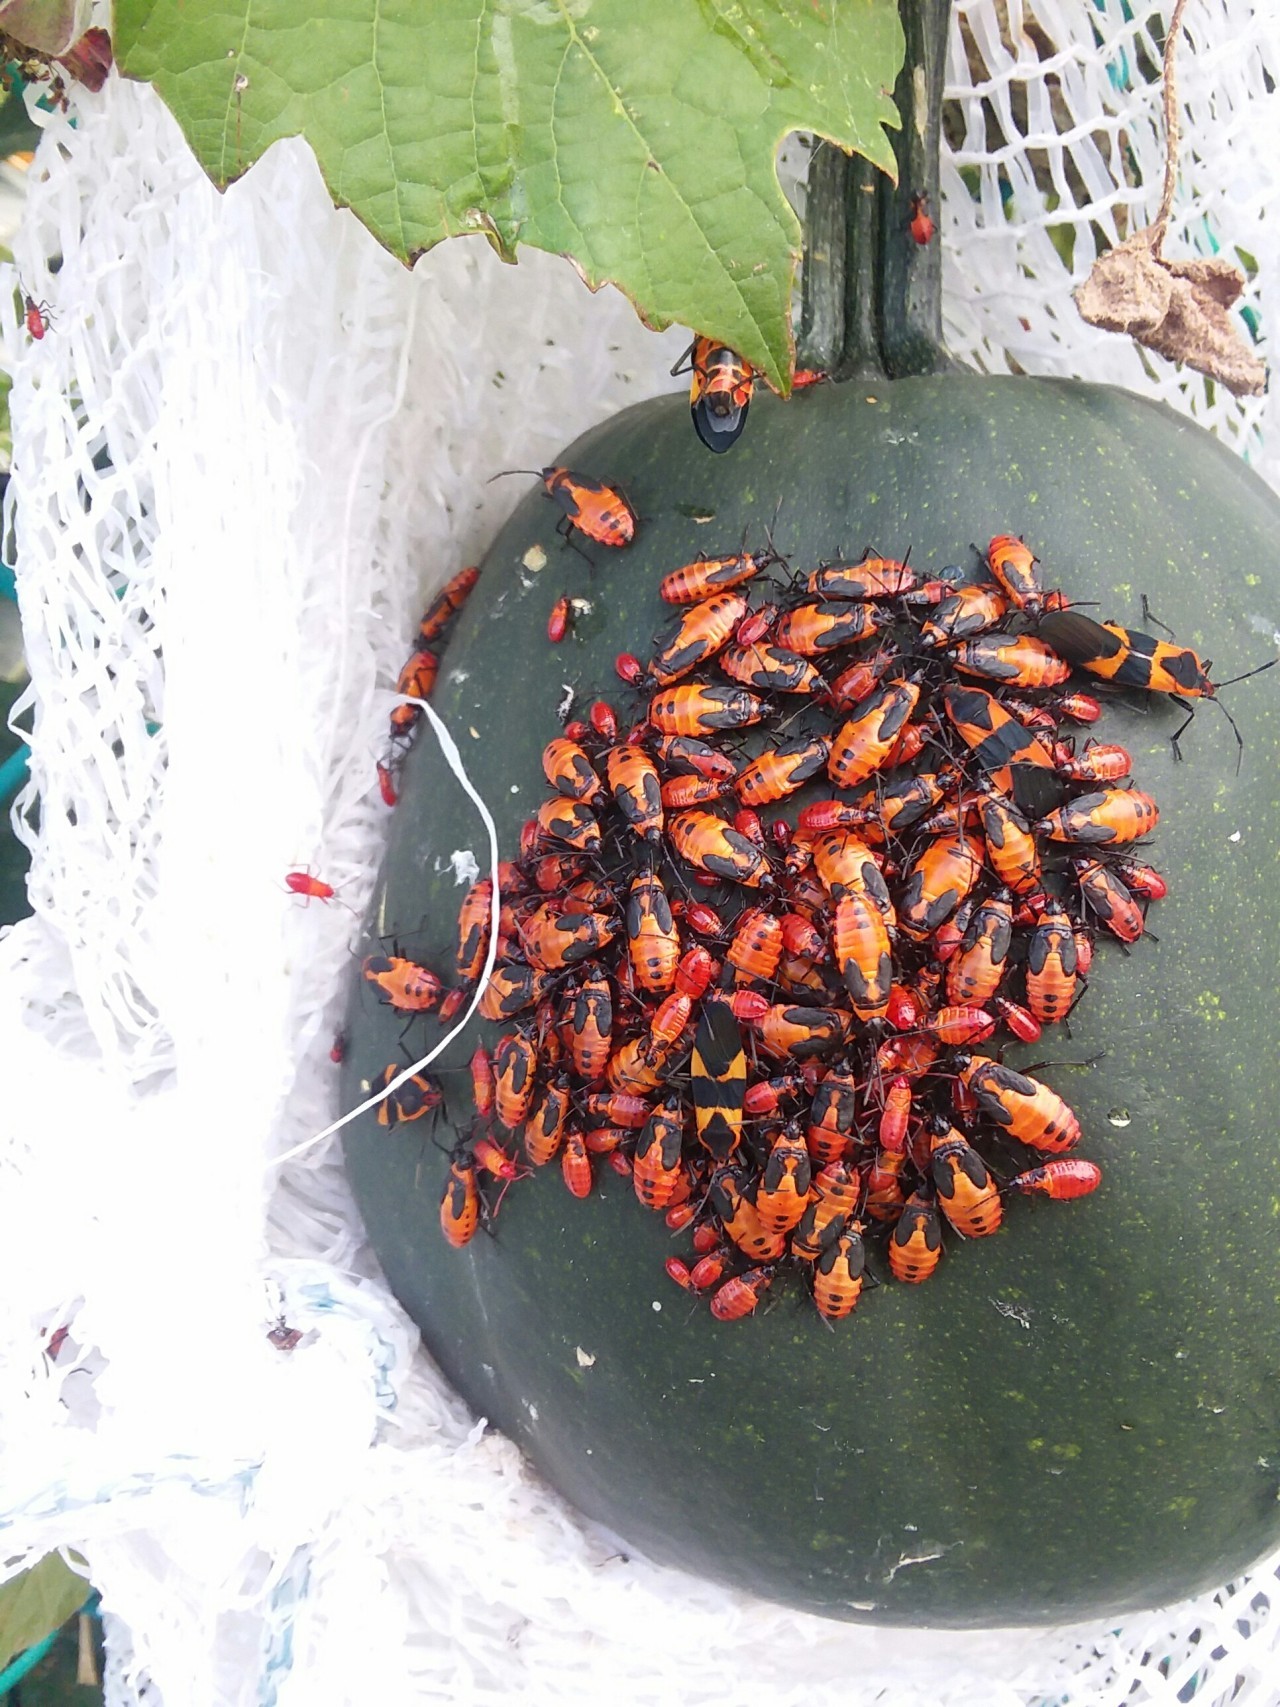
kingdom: Animalia
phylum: Arthropoda
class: Insecta
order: Hemiptera
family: Lygaeidae
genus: Oncopeltus
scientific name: Oncopeltus fasciatus
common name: Large milkweed bug
